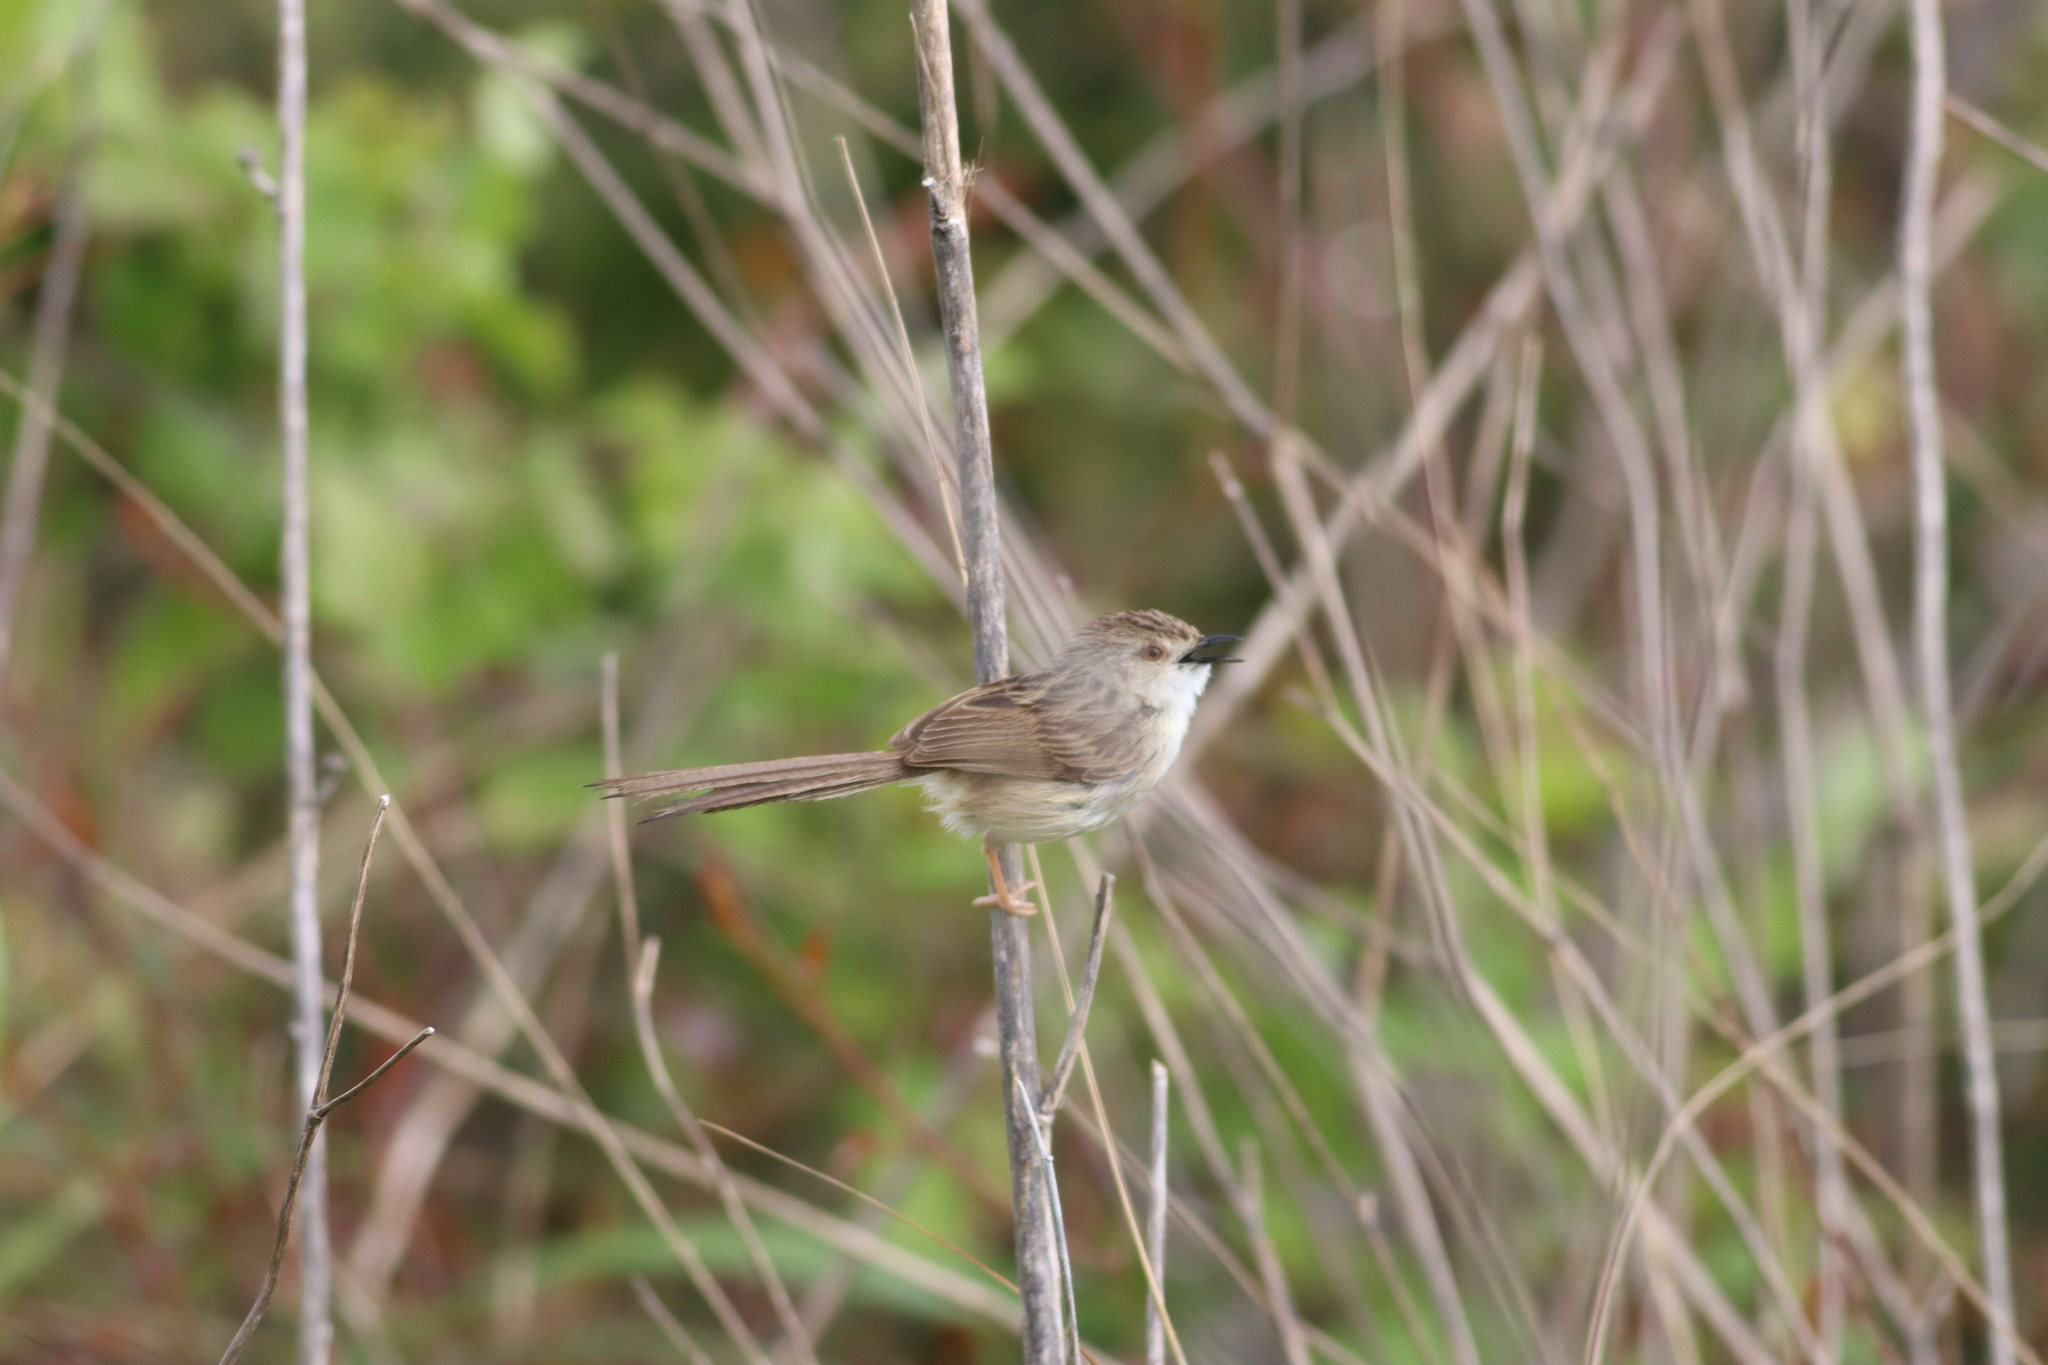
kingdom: Animalia
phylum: Chordata
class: Aves
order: Passeriformes
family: Cisticolidae
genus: Prinia
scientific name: Prinia lepida
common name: Delicate prinia
